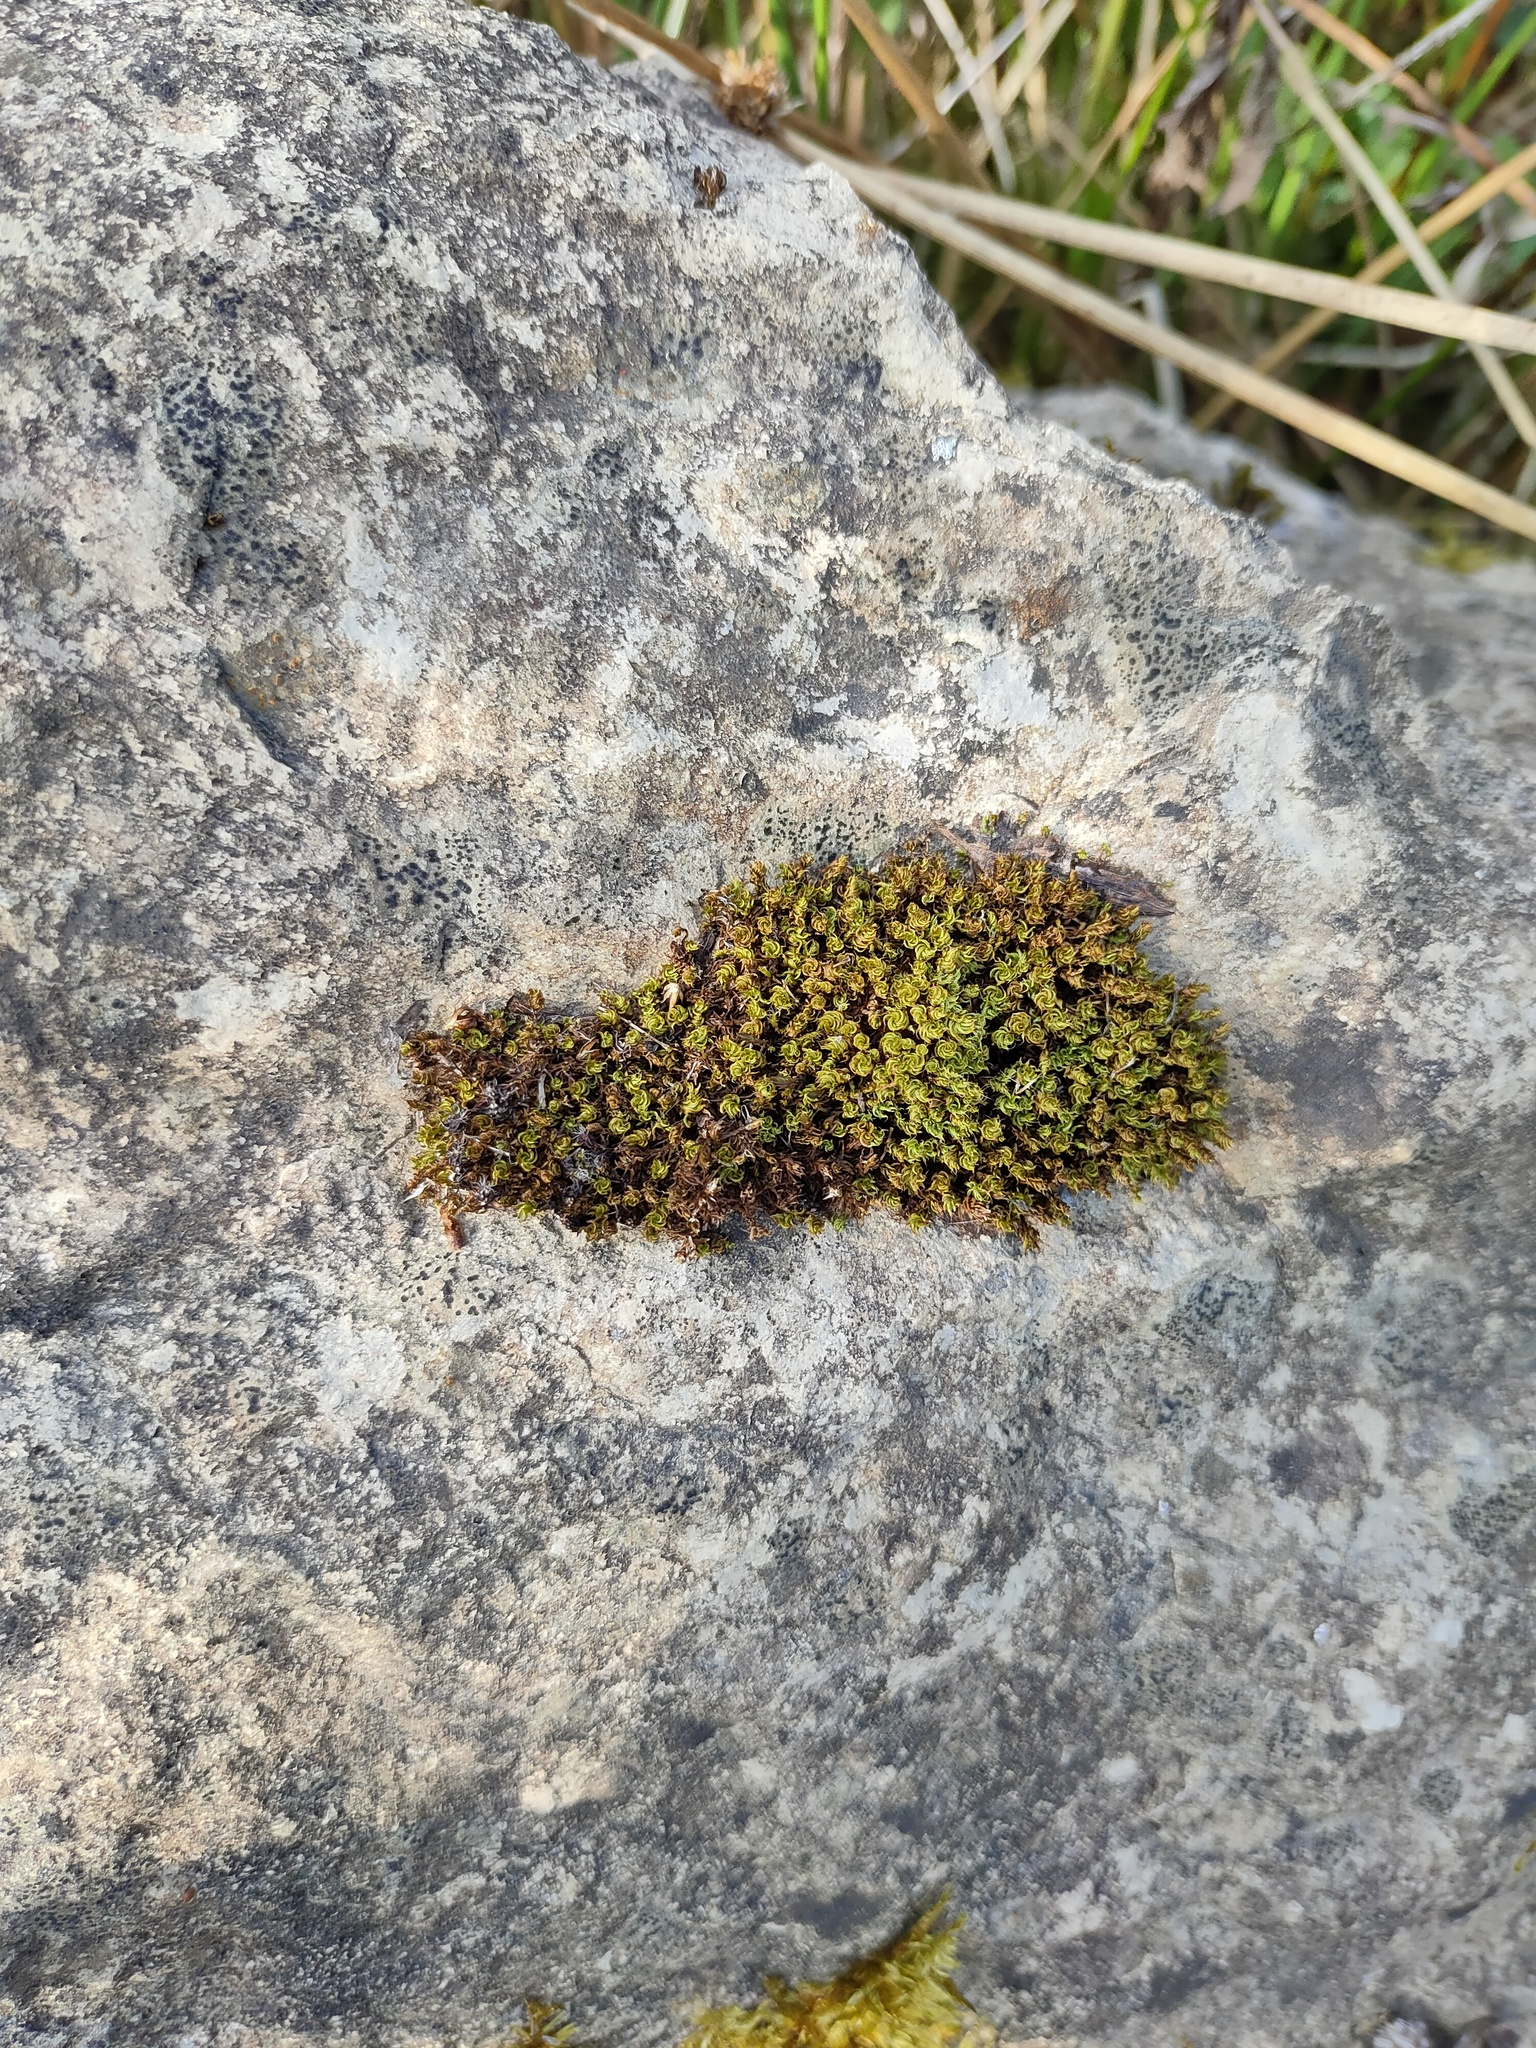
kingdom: Plantae
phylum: Bryophyta
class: Bryopsida
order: Bryales
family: Bryaceae
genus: Rosulabryum
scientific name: Rosulabryum capillare
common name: Capillary thread-moss
